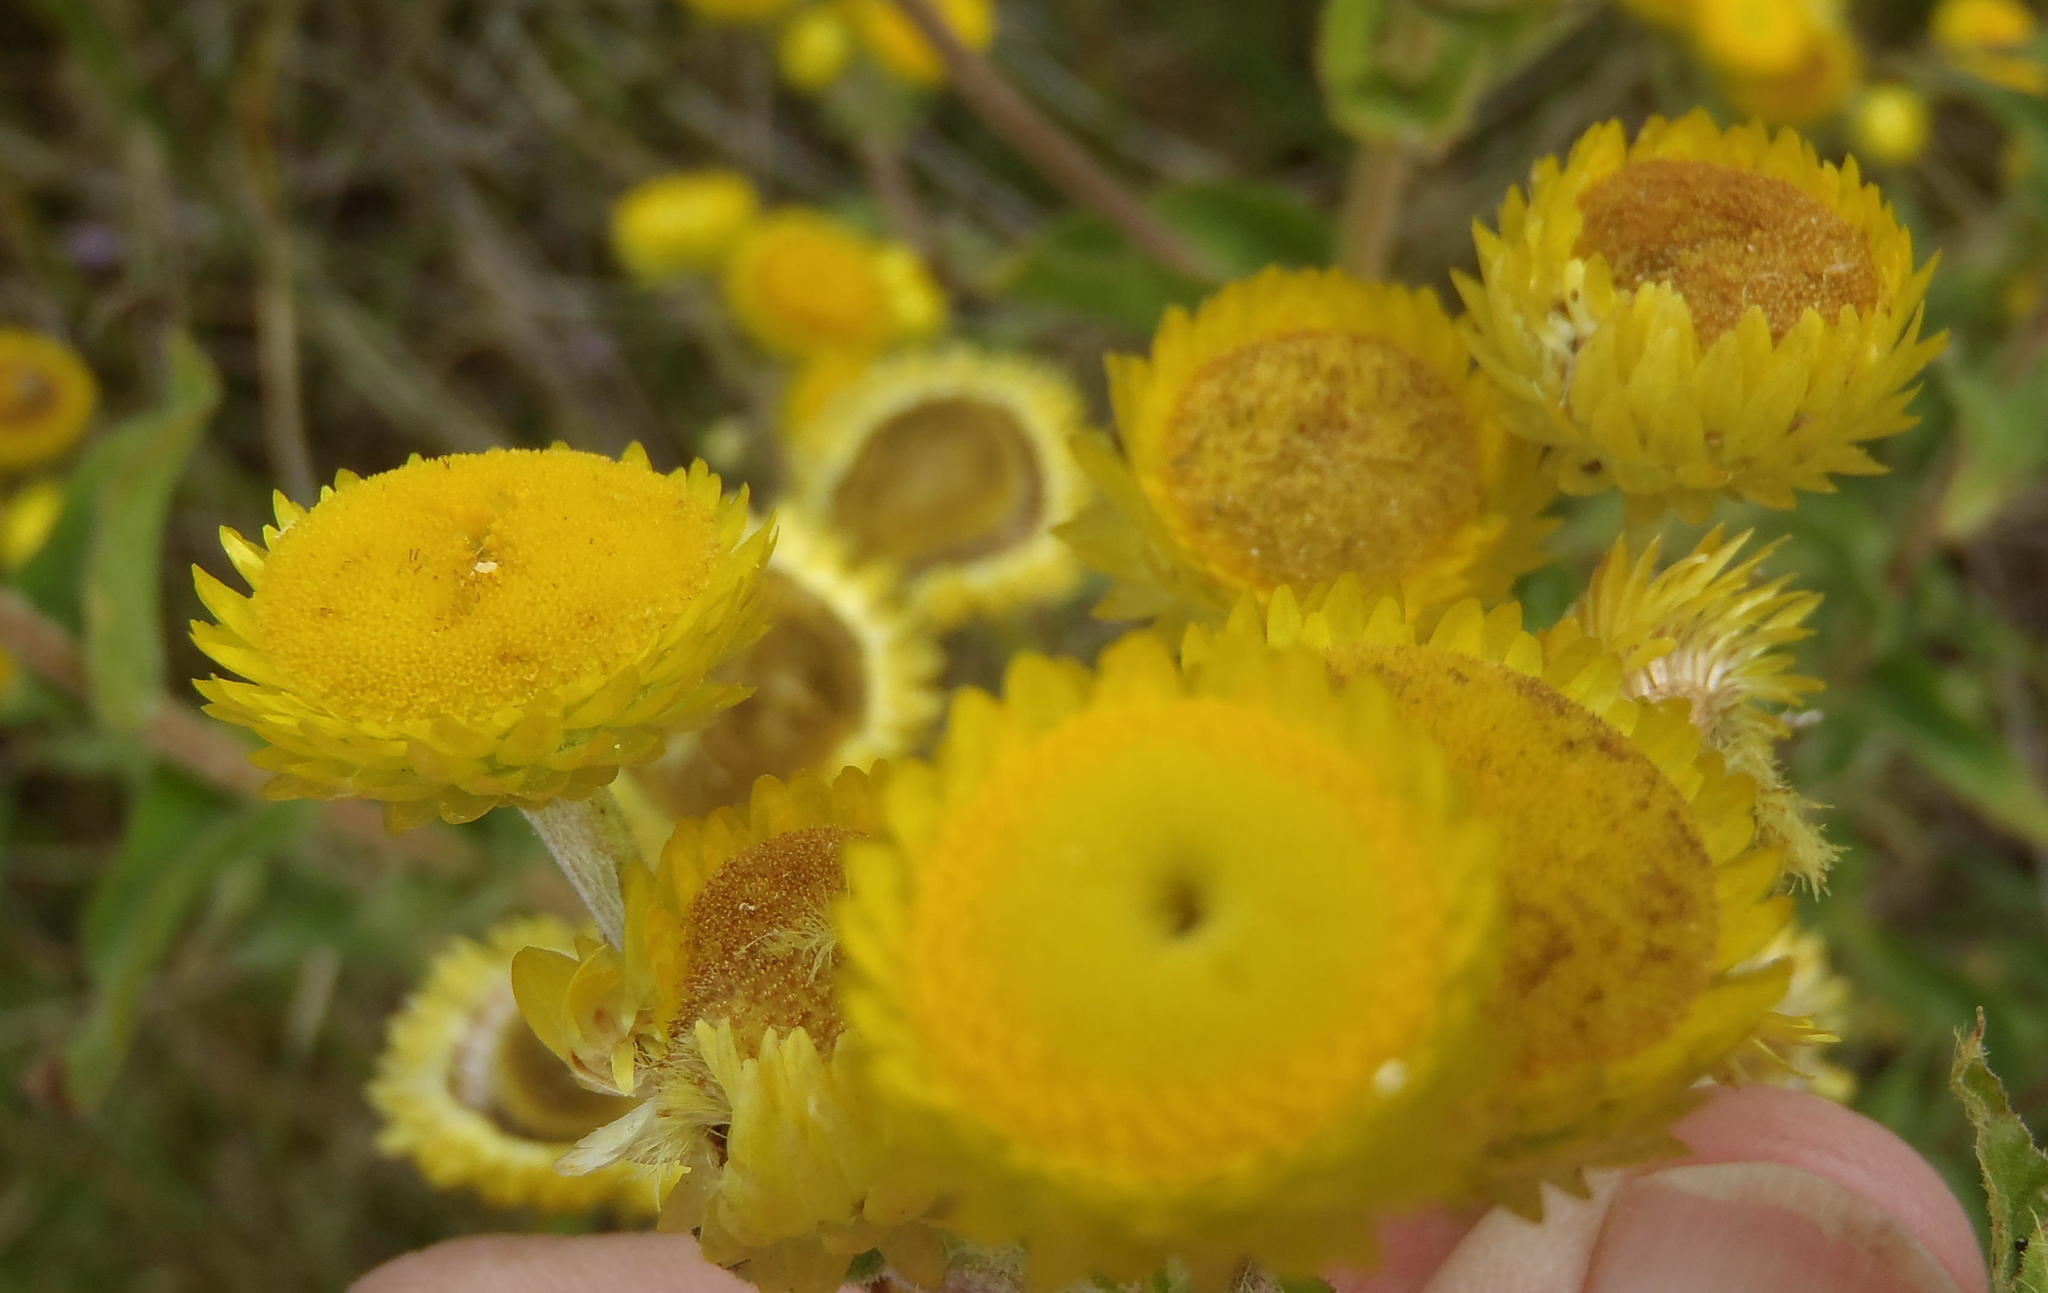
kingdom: Plantae
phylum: Tracheophyta
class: Magnoliopsida
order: Asterales
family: Asteraceae
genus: Helichrysum
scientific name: Helichrysum foetidum
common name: Stinking everlasting
